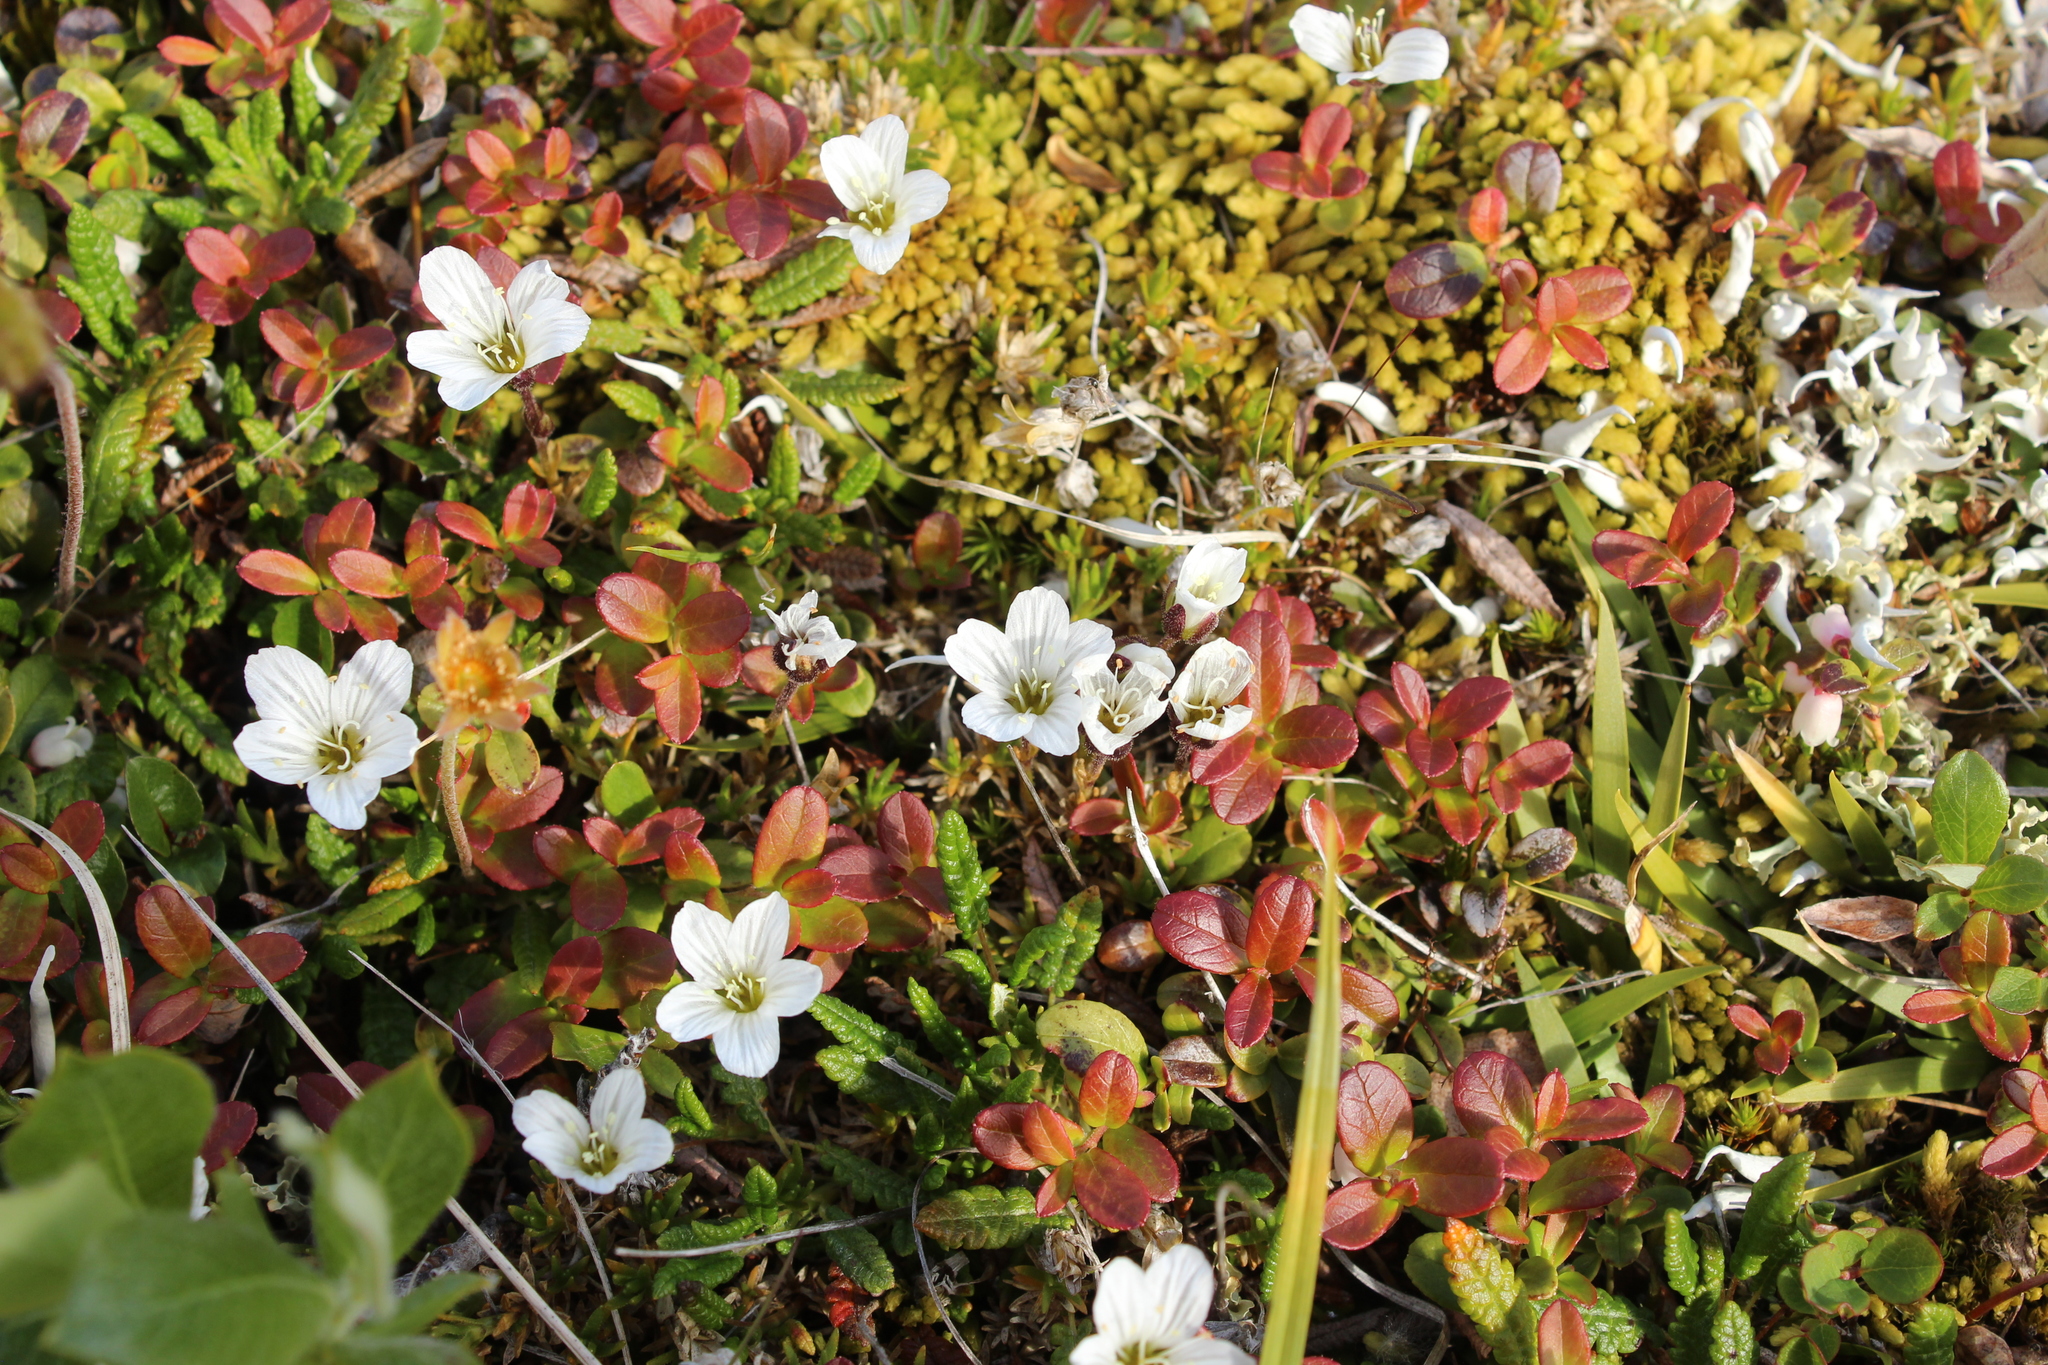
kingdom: Plantae
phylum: Tracheophyta
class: Magnoliopsida
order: Caryophyllales
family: Caryophyllaceae
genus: Cherleria
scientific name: Cherleria arctica
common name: Arctic sandwort
